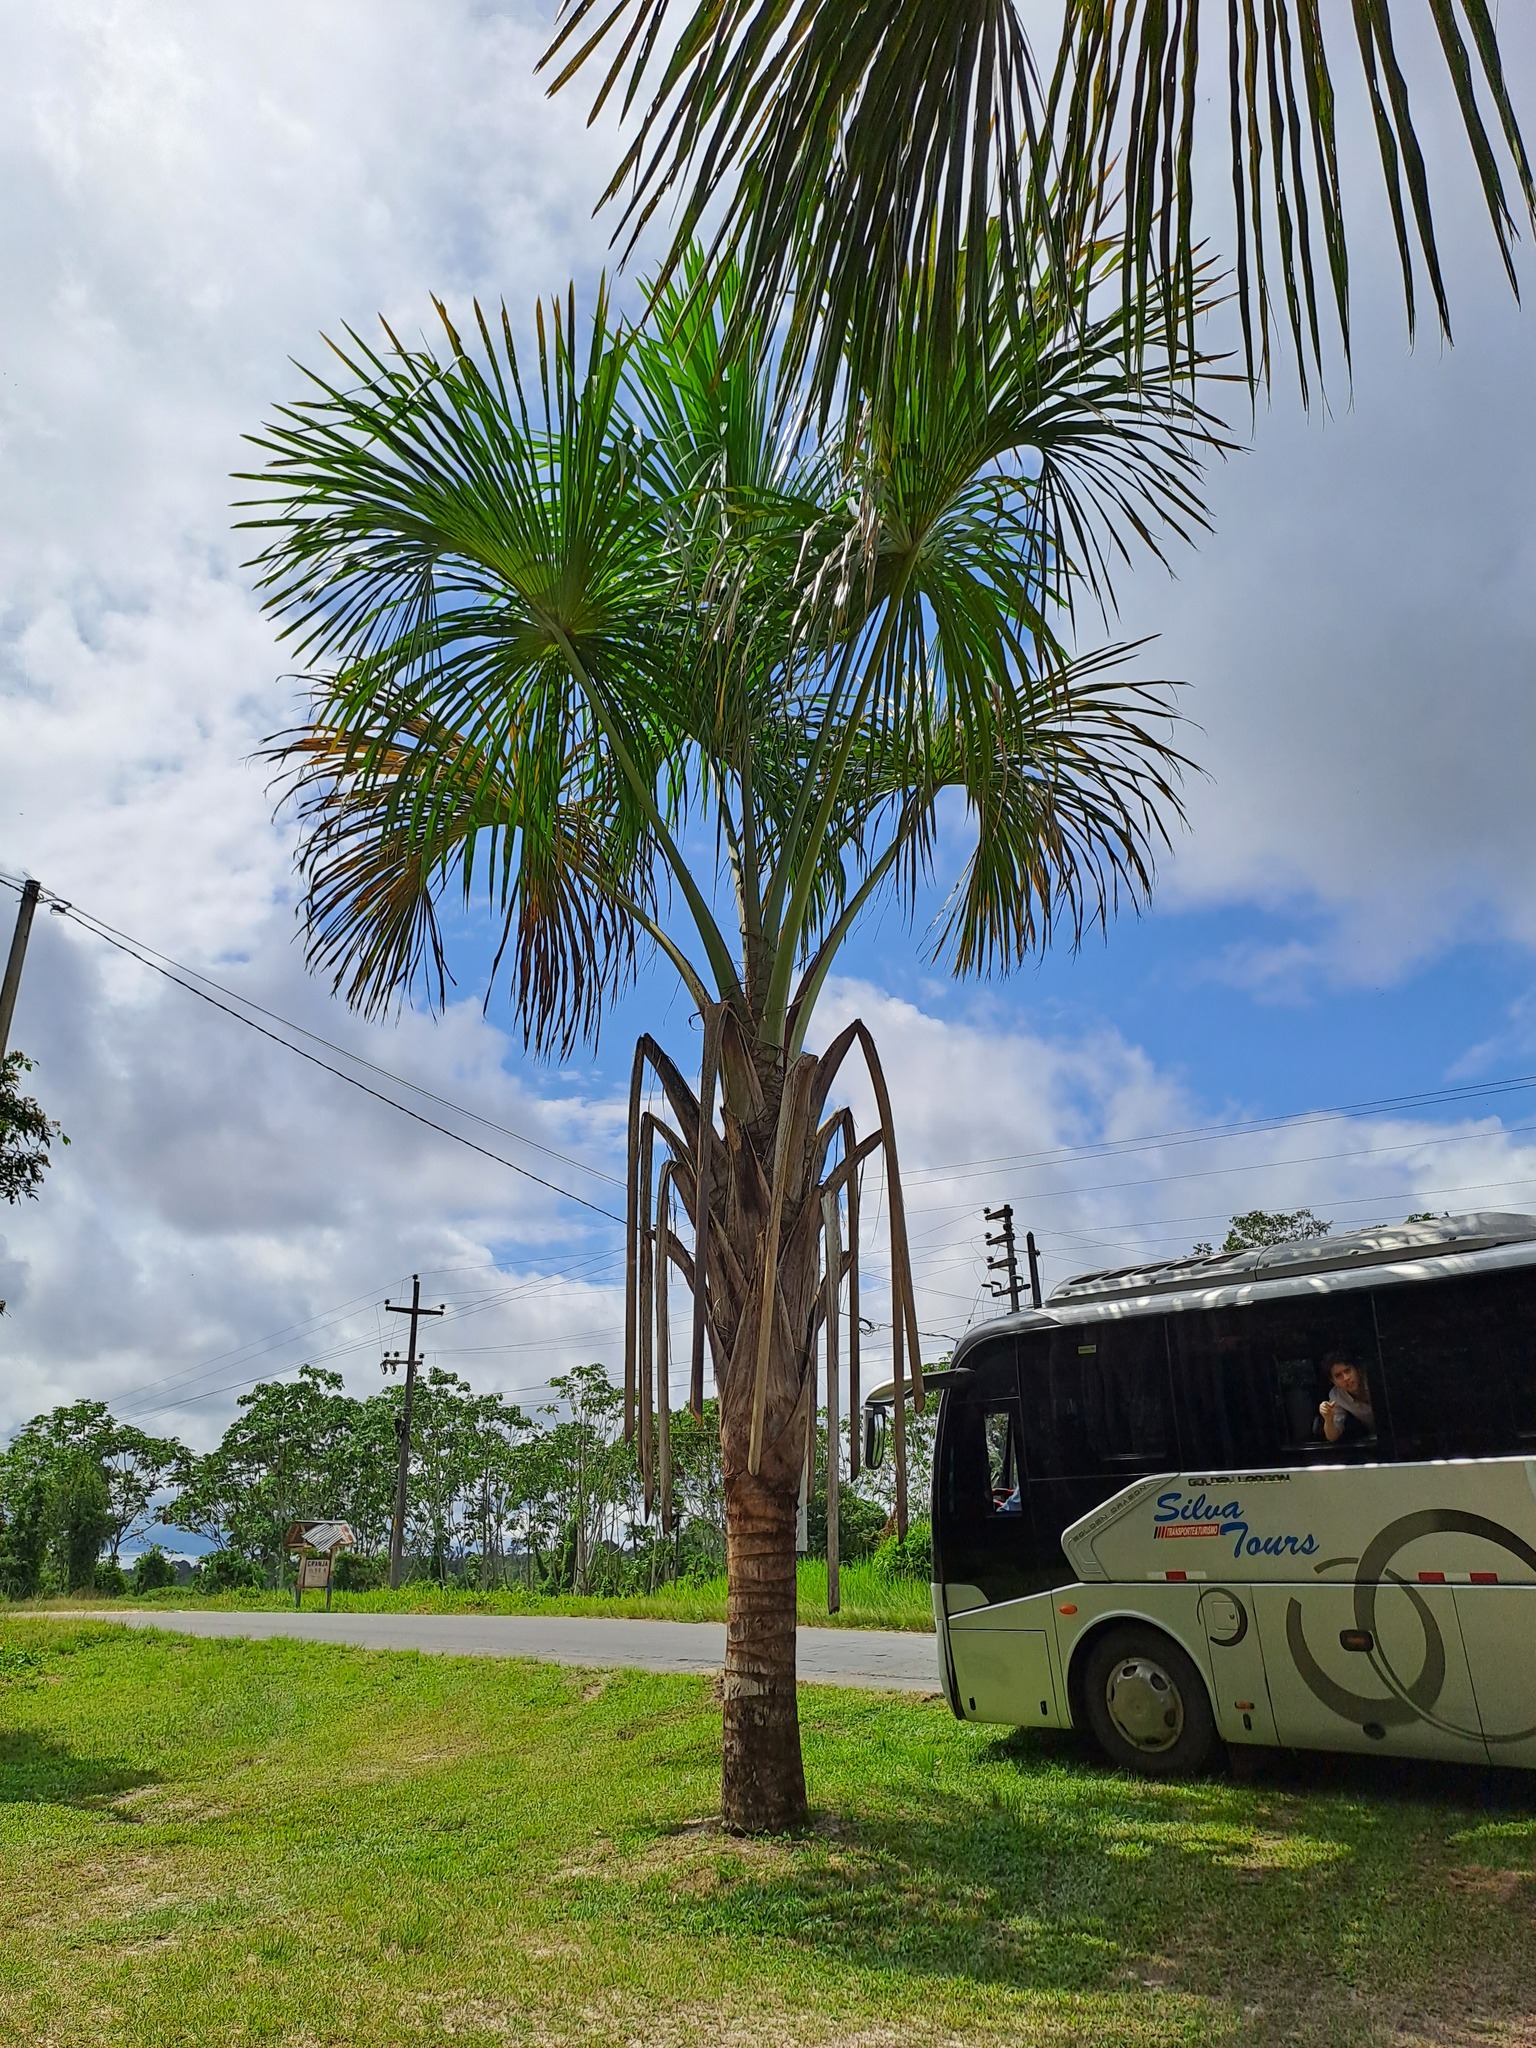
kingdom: Plantae
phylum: Tracheophyta
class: Liliopsida
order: Arecales
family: Arecaceae
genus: Mauritia
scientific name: Mauritia flexuosa
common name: Tree-of-life
